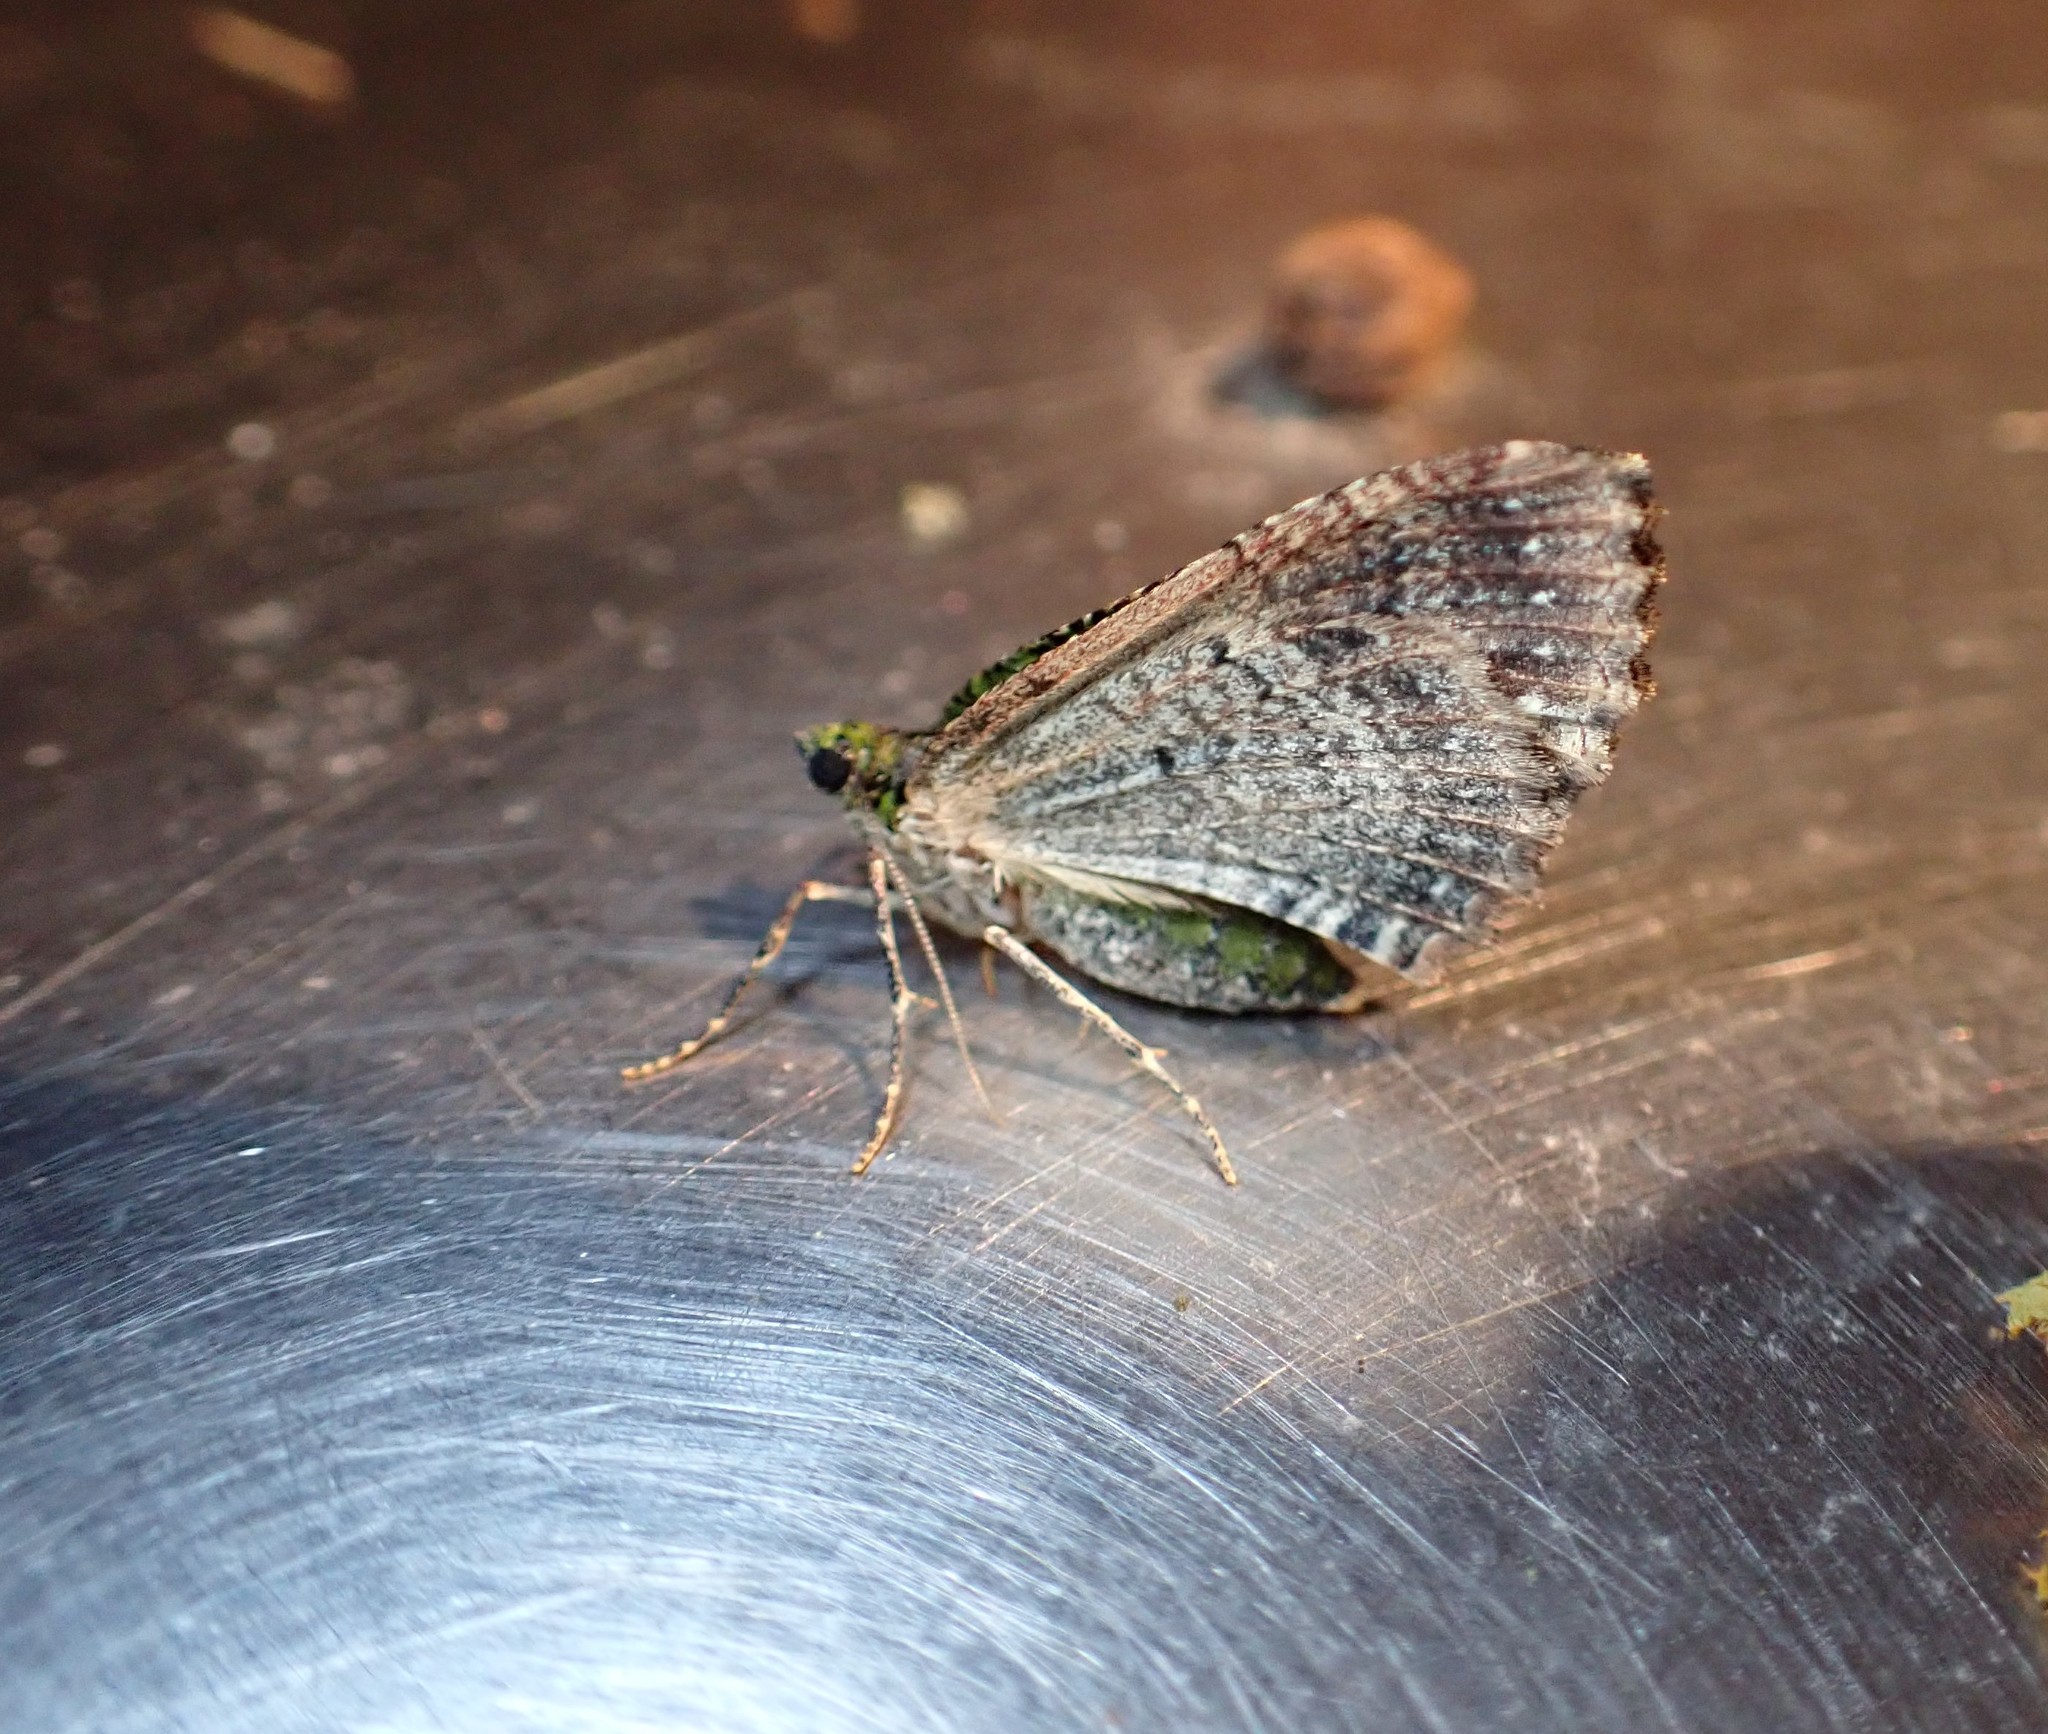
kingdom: Animalia
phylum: Arthropoda
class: Insecta
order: Lepidoptera
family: Geometridae
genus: Austrocidaria
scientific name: Austrocidaria similata
